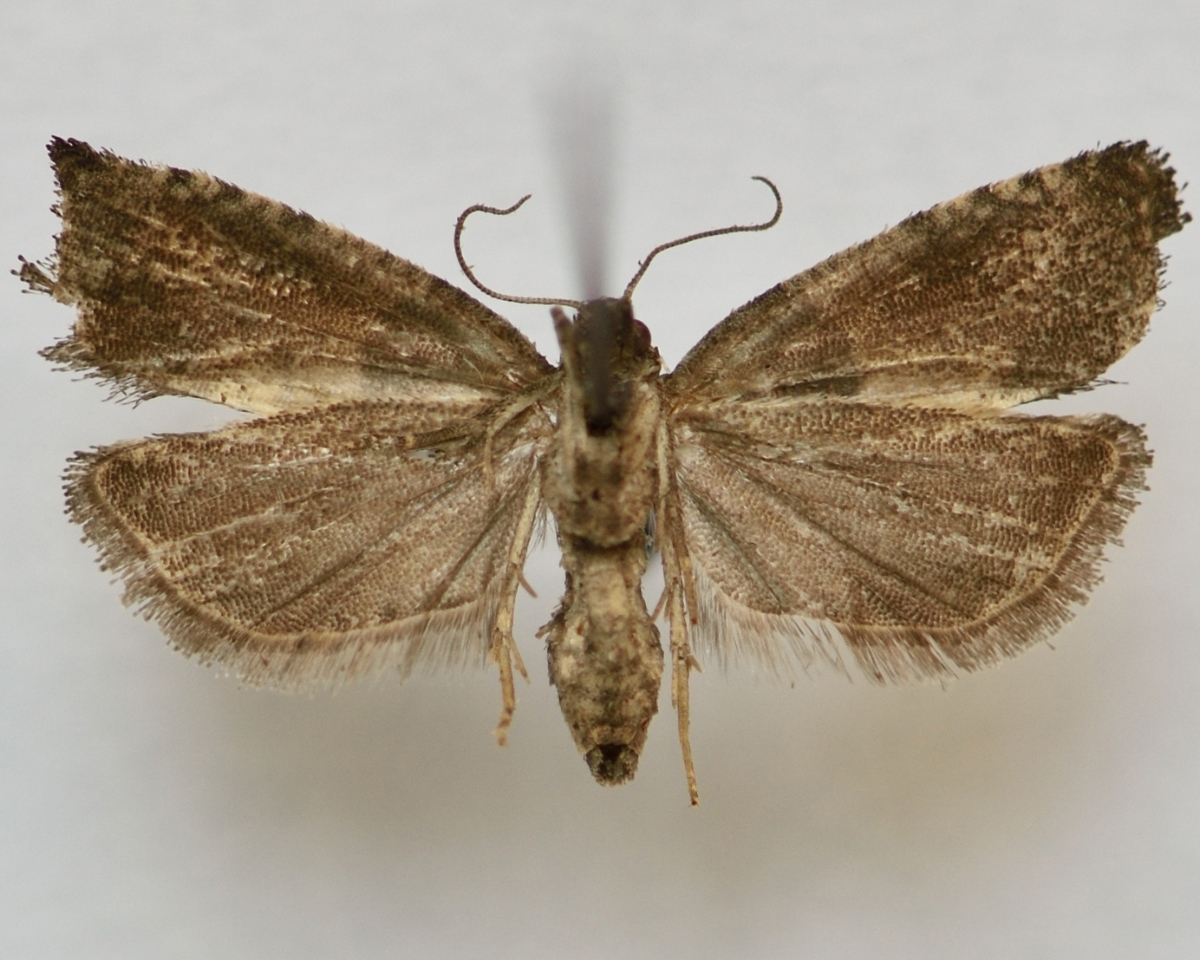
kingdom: Animalia
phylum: Arthropoda
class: Insecta
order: Lepidoptera
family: Tortricidae
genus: Spilonota
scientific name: Spilonota ocellana
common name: Bud moth
